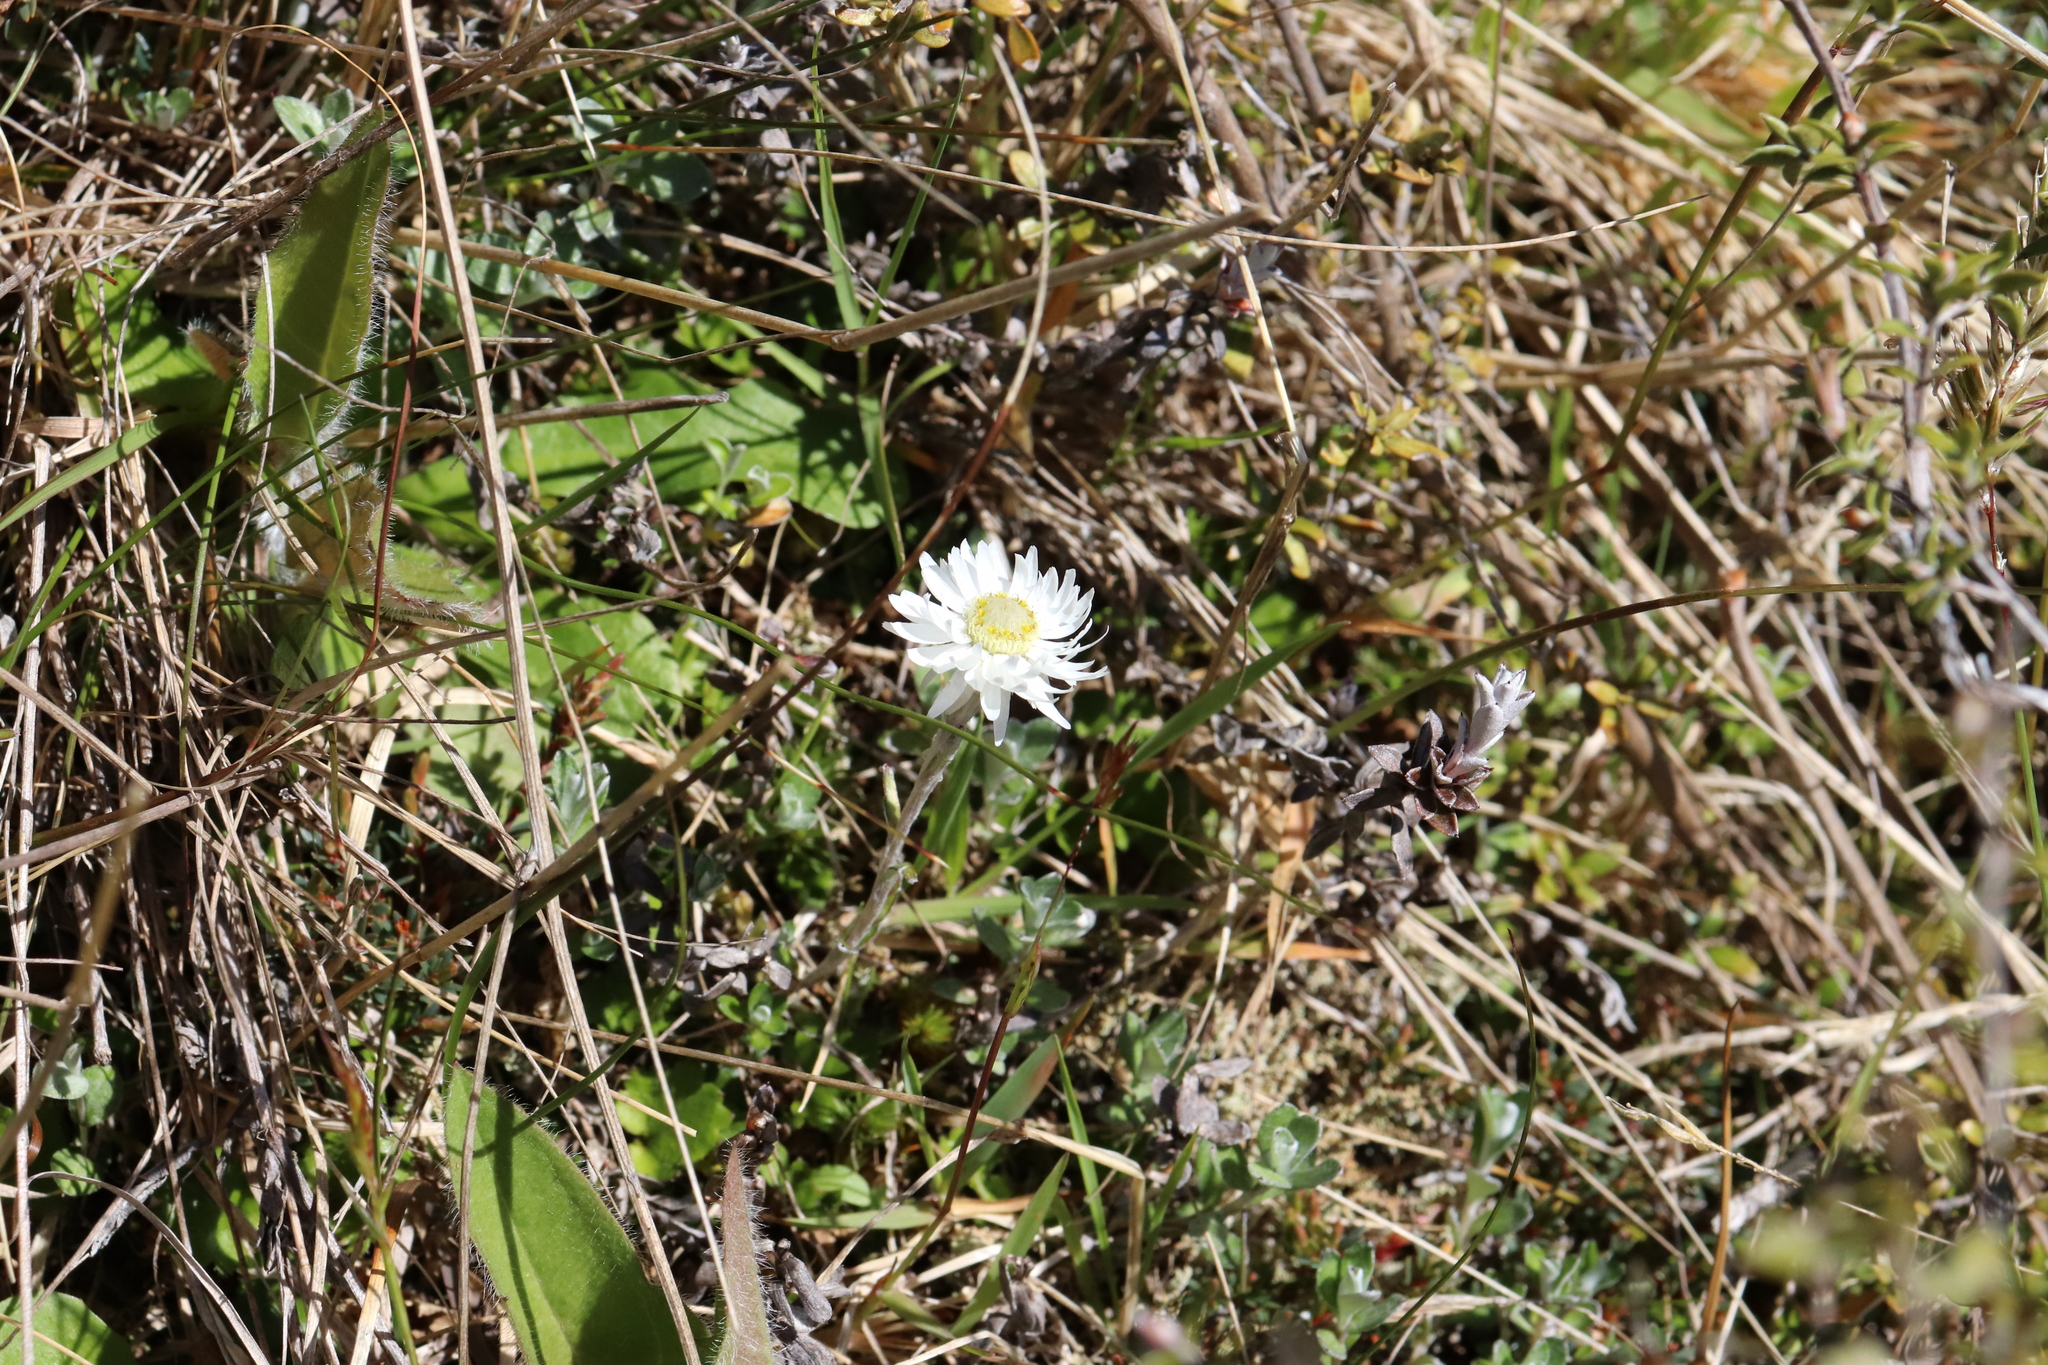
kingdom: Plantae
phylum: Tracheophyta
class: Magnoliopsida
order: Asterales
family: Asteraceae
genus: Anaphalioides
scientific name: Anaphalioides bellidioides
